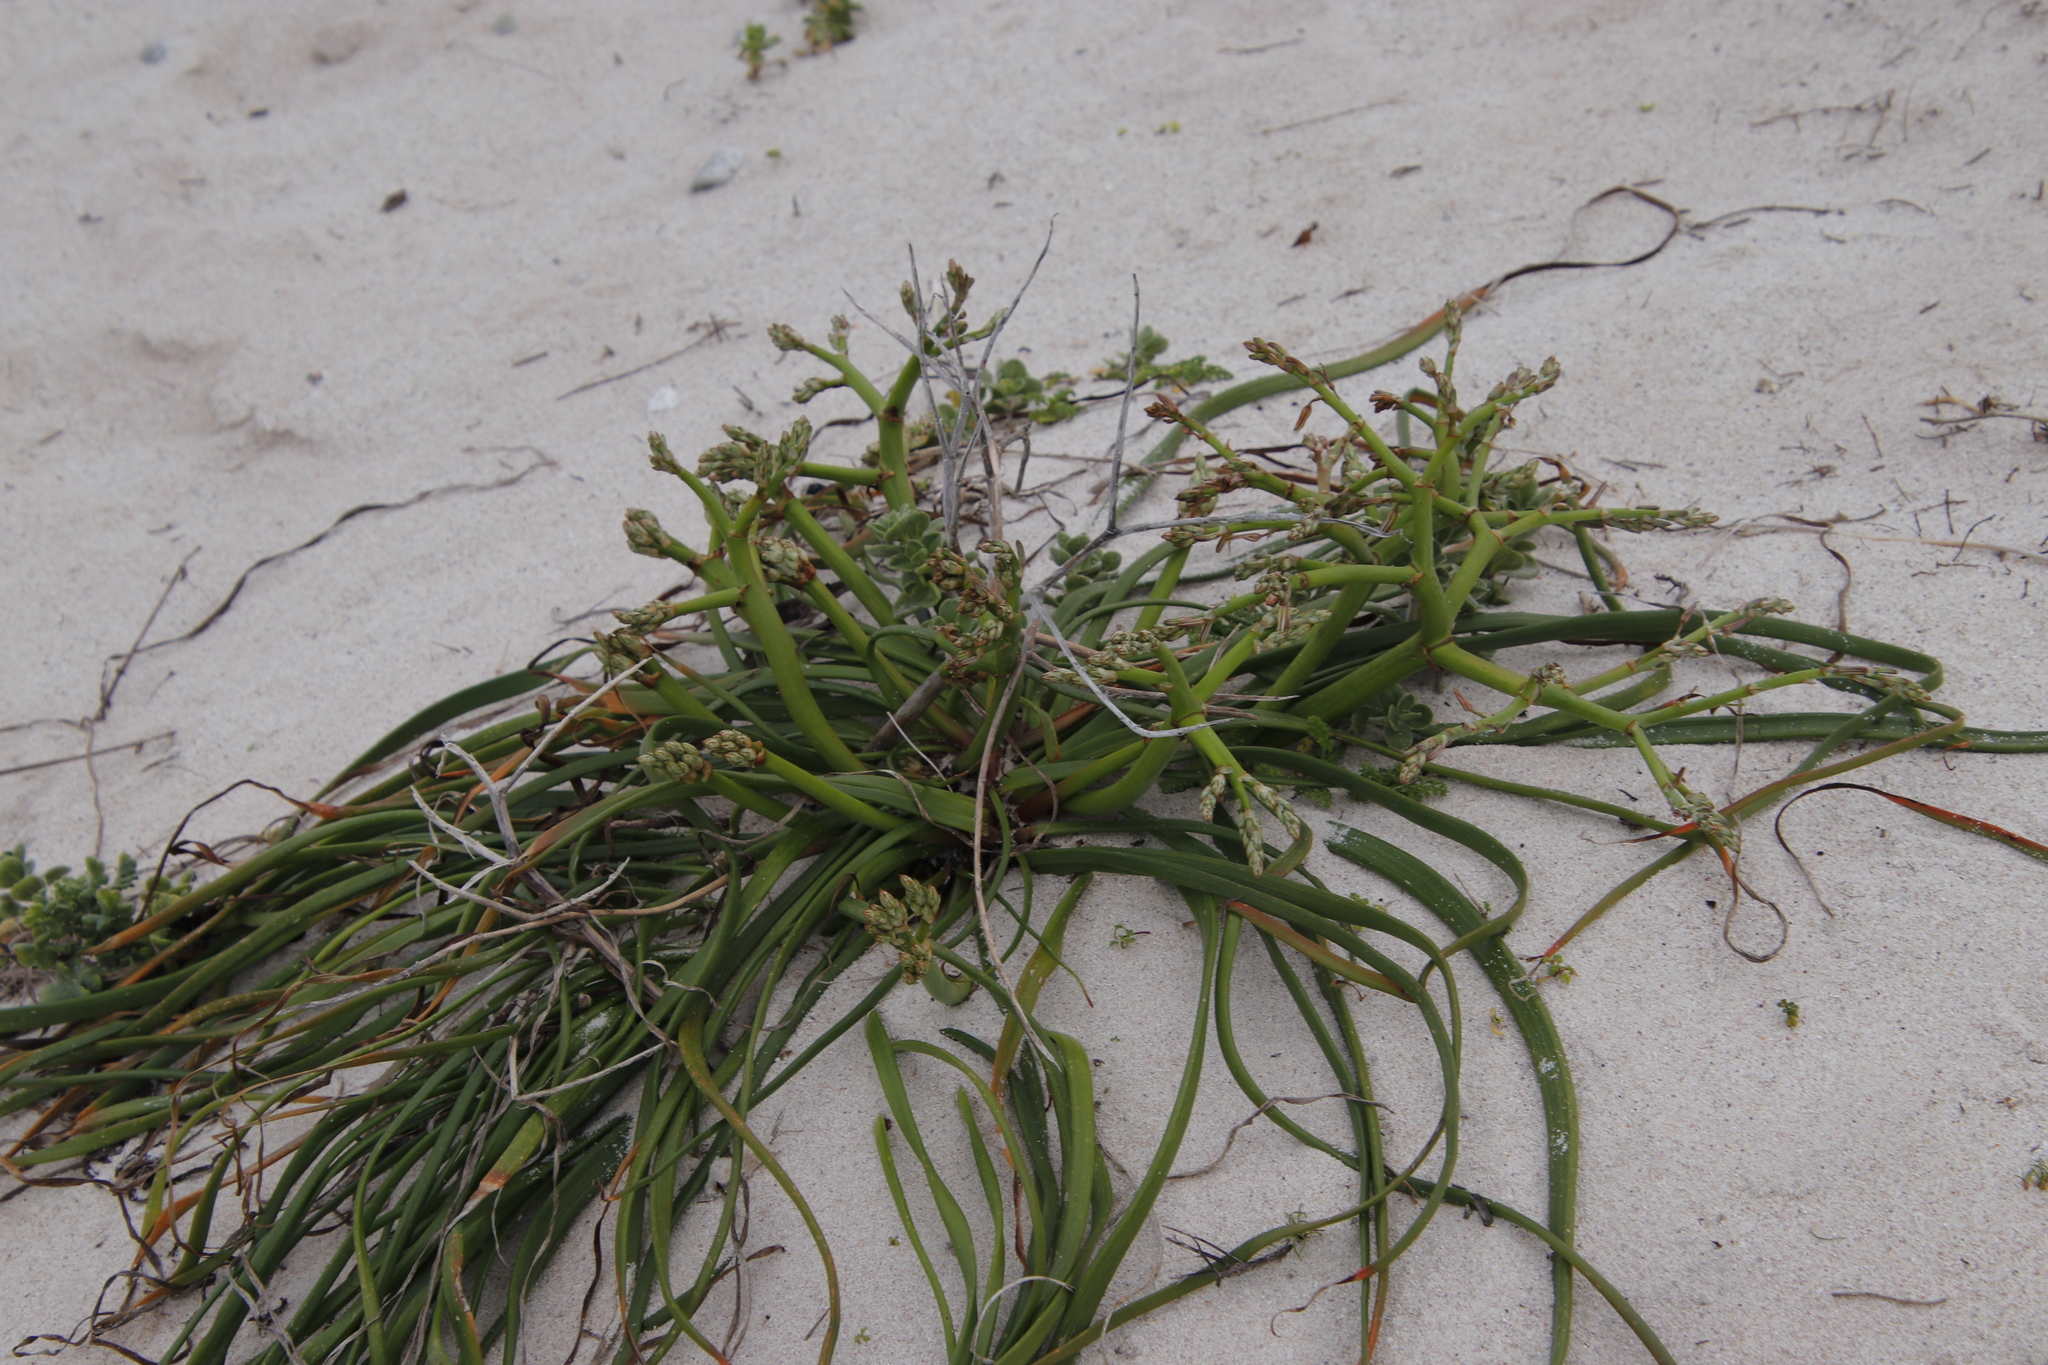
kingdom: Plantae
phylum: Tracheophyta
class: Liliopsida
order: Asparagales
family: Asphodelaceae
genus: Trachyandra
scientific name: Trachyandra divaricata
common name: Dune onionweed
